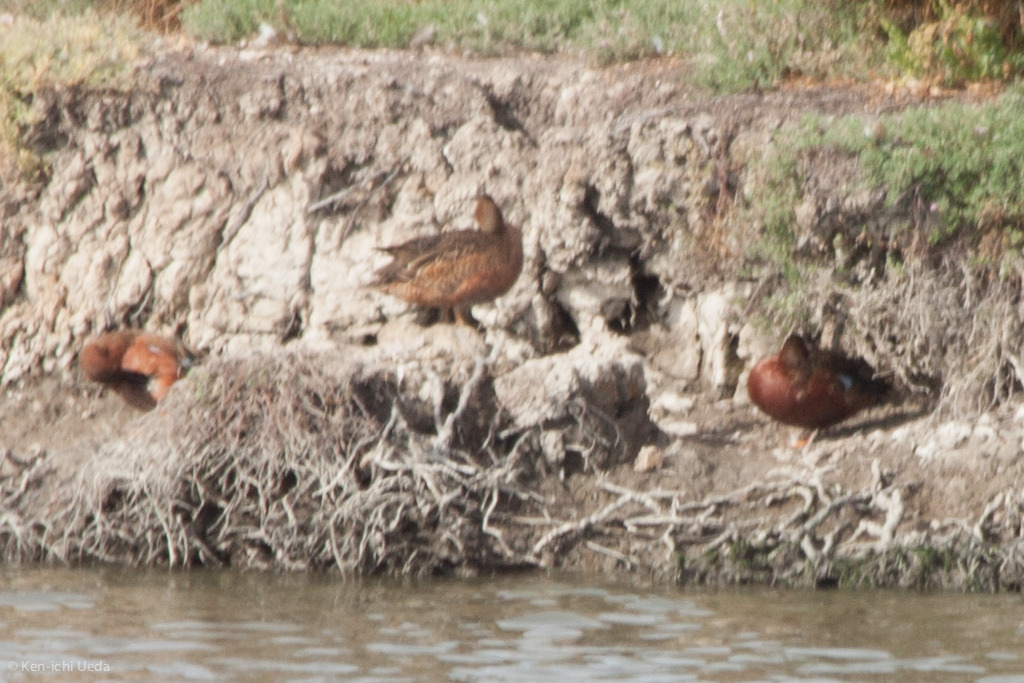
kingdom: Animalia
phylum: Chordata
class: Aves
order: Anseriformes
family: Anatidae
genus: Spatula
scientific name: Spatula cyanoptera
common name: Cinnamon teal
